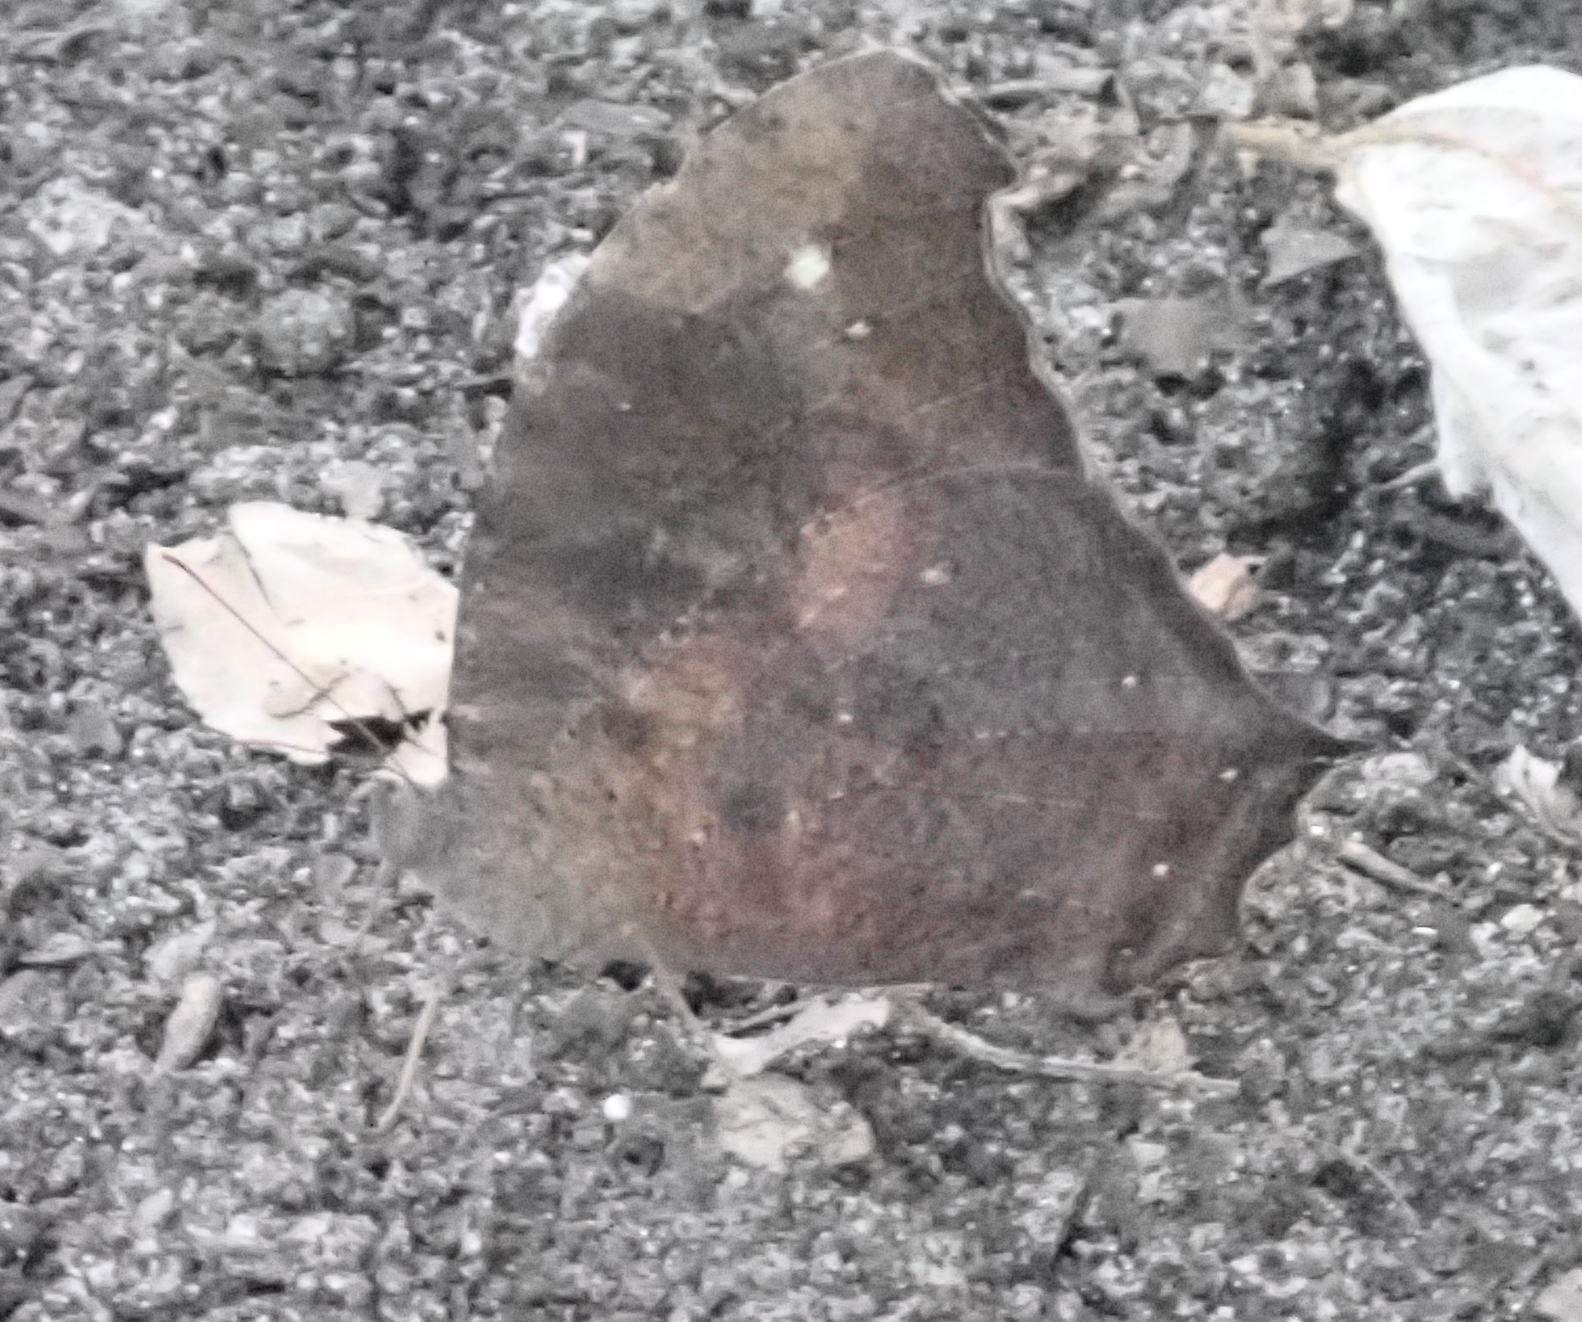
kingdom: Animalia
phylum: Arthropoda
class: Insecta
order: Lepidoptera
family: Nymphalidae
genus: Melanitis
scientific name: Melanitis leda
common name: Twilight brown
